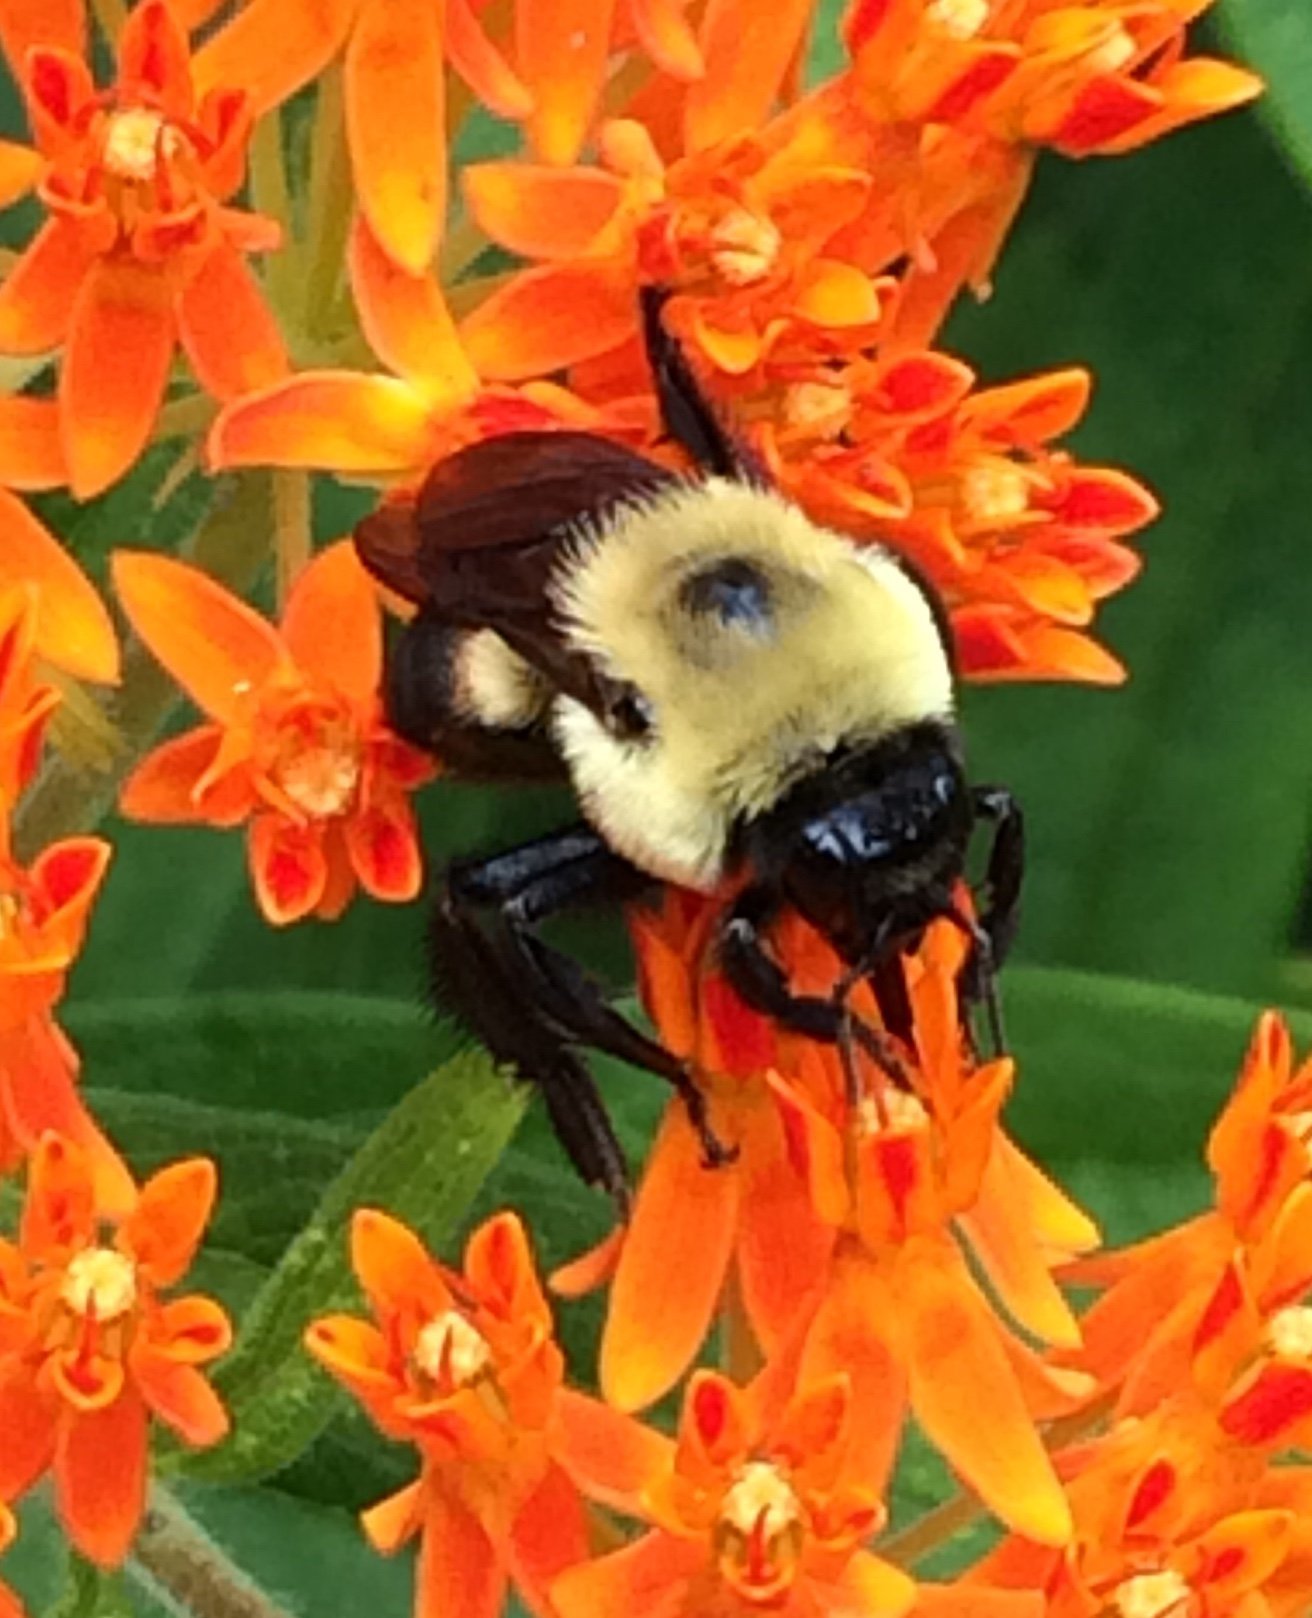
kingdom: Animalia
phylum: Arthropoda
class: Insecta
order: Hymenoptera
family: Apidae
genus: Bombus
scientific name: Bombus griseocollis
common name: Brown-belted bumble bee
